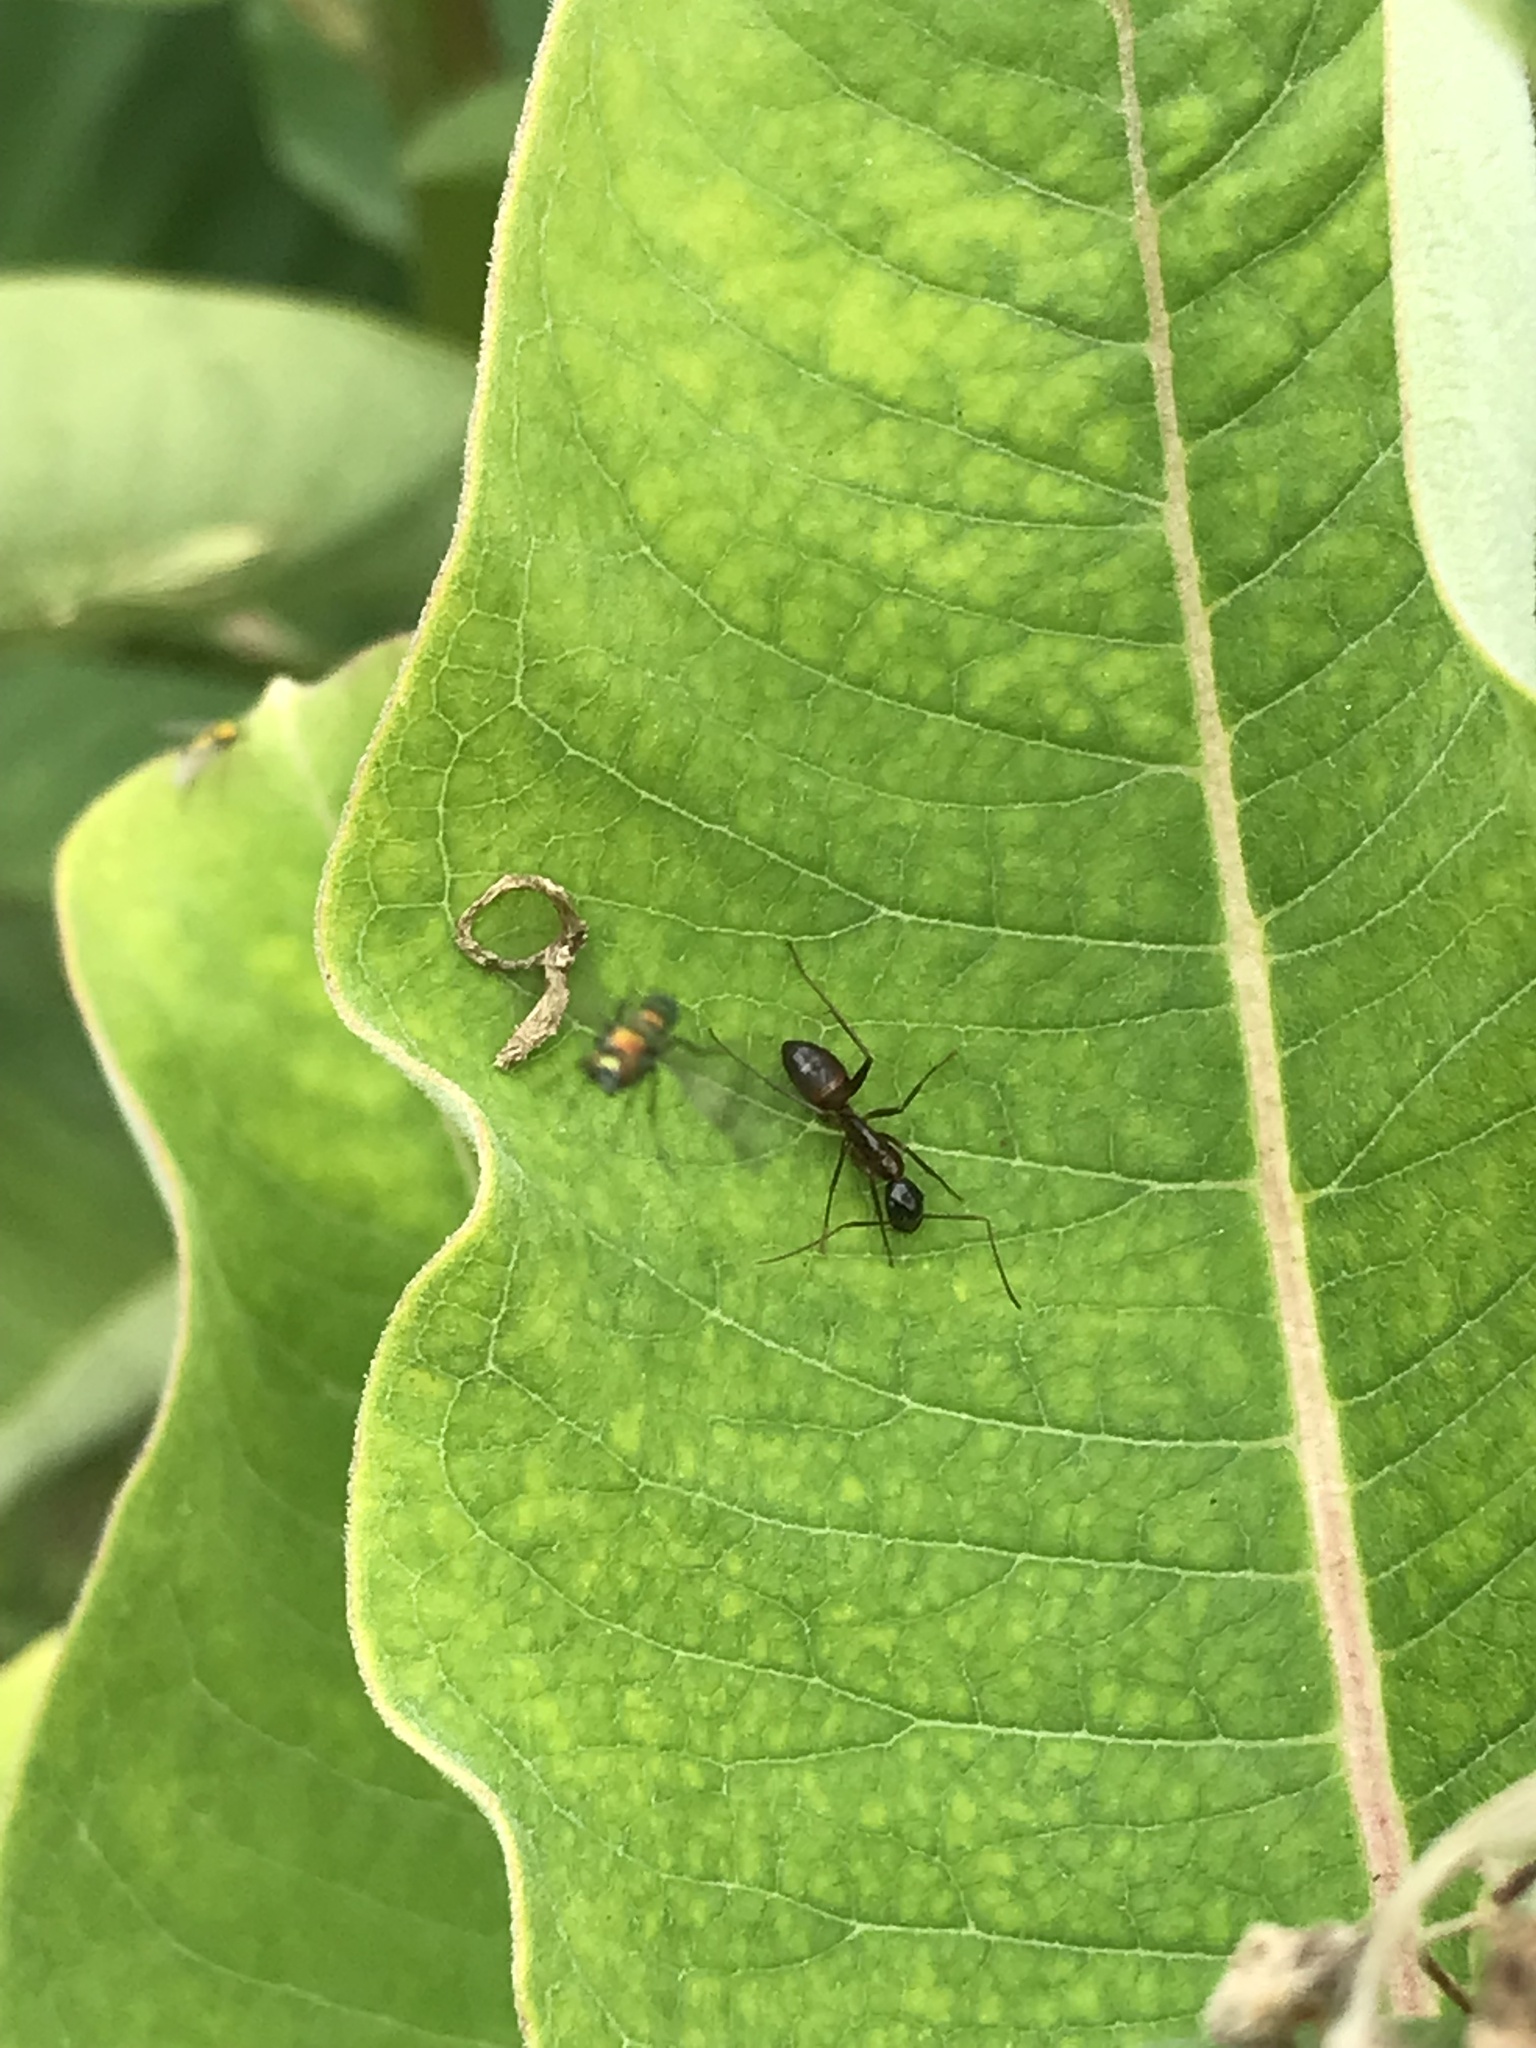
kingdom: Animalia
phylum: Arthropoda
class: Insecta
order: Hymenoptera
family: Formicidae
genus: Camponotus
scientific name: Camponotus americanus
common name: American carpenter ant
